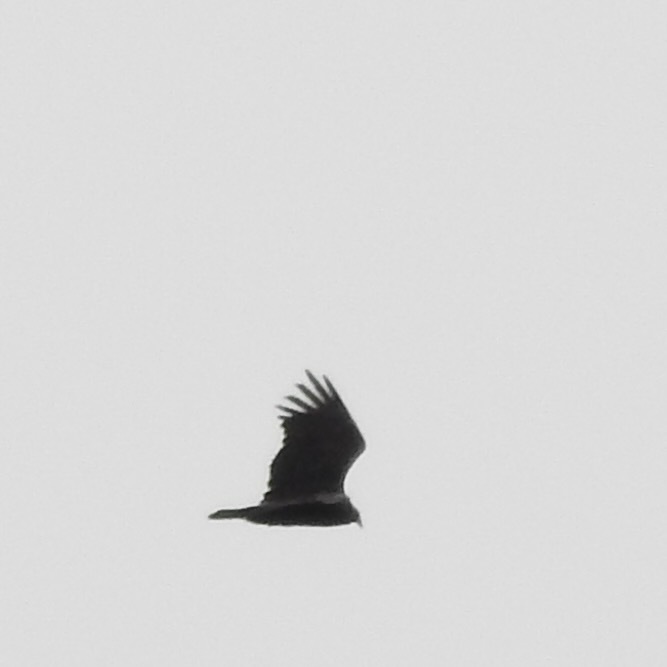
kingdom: Animalia
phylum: Chordata
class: Aves
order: Accipitriformes
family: Cathartidae
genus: Cathartes
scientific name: Cathartes aura
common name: Turkey vulture
